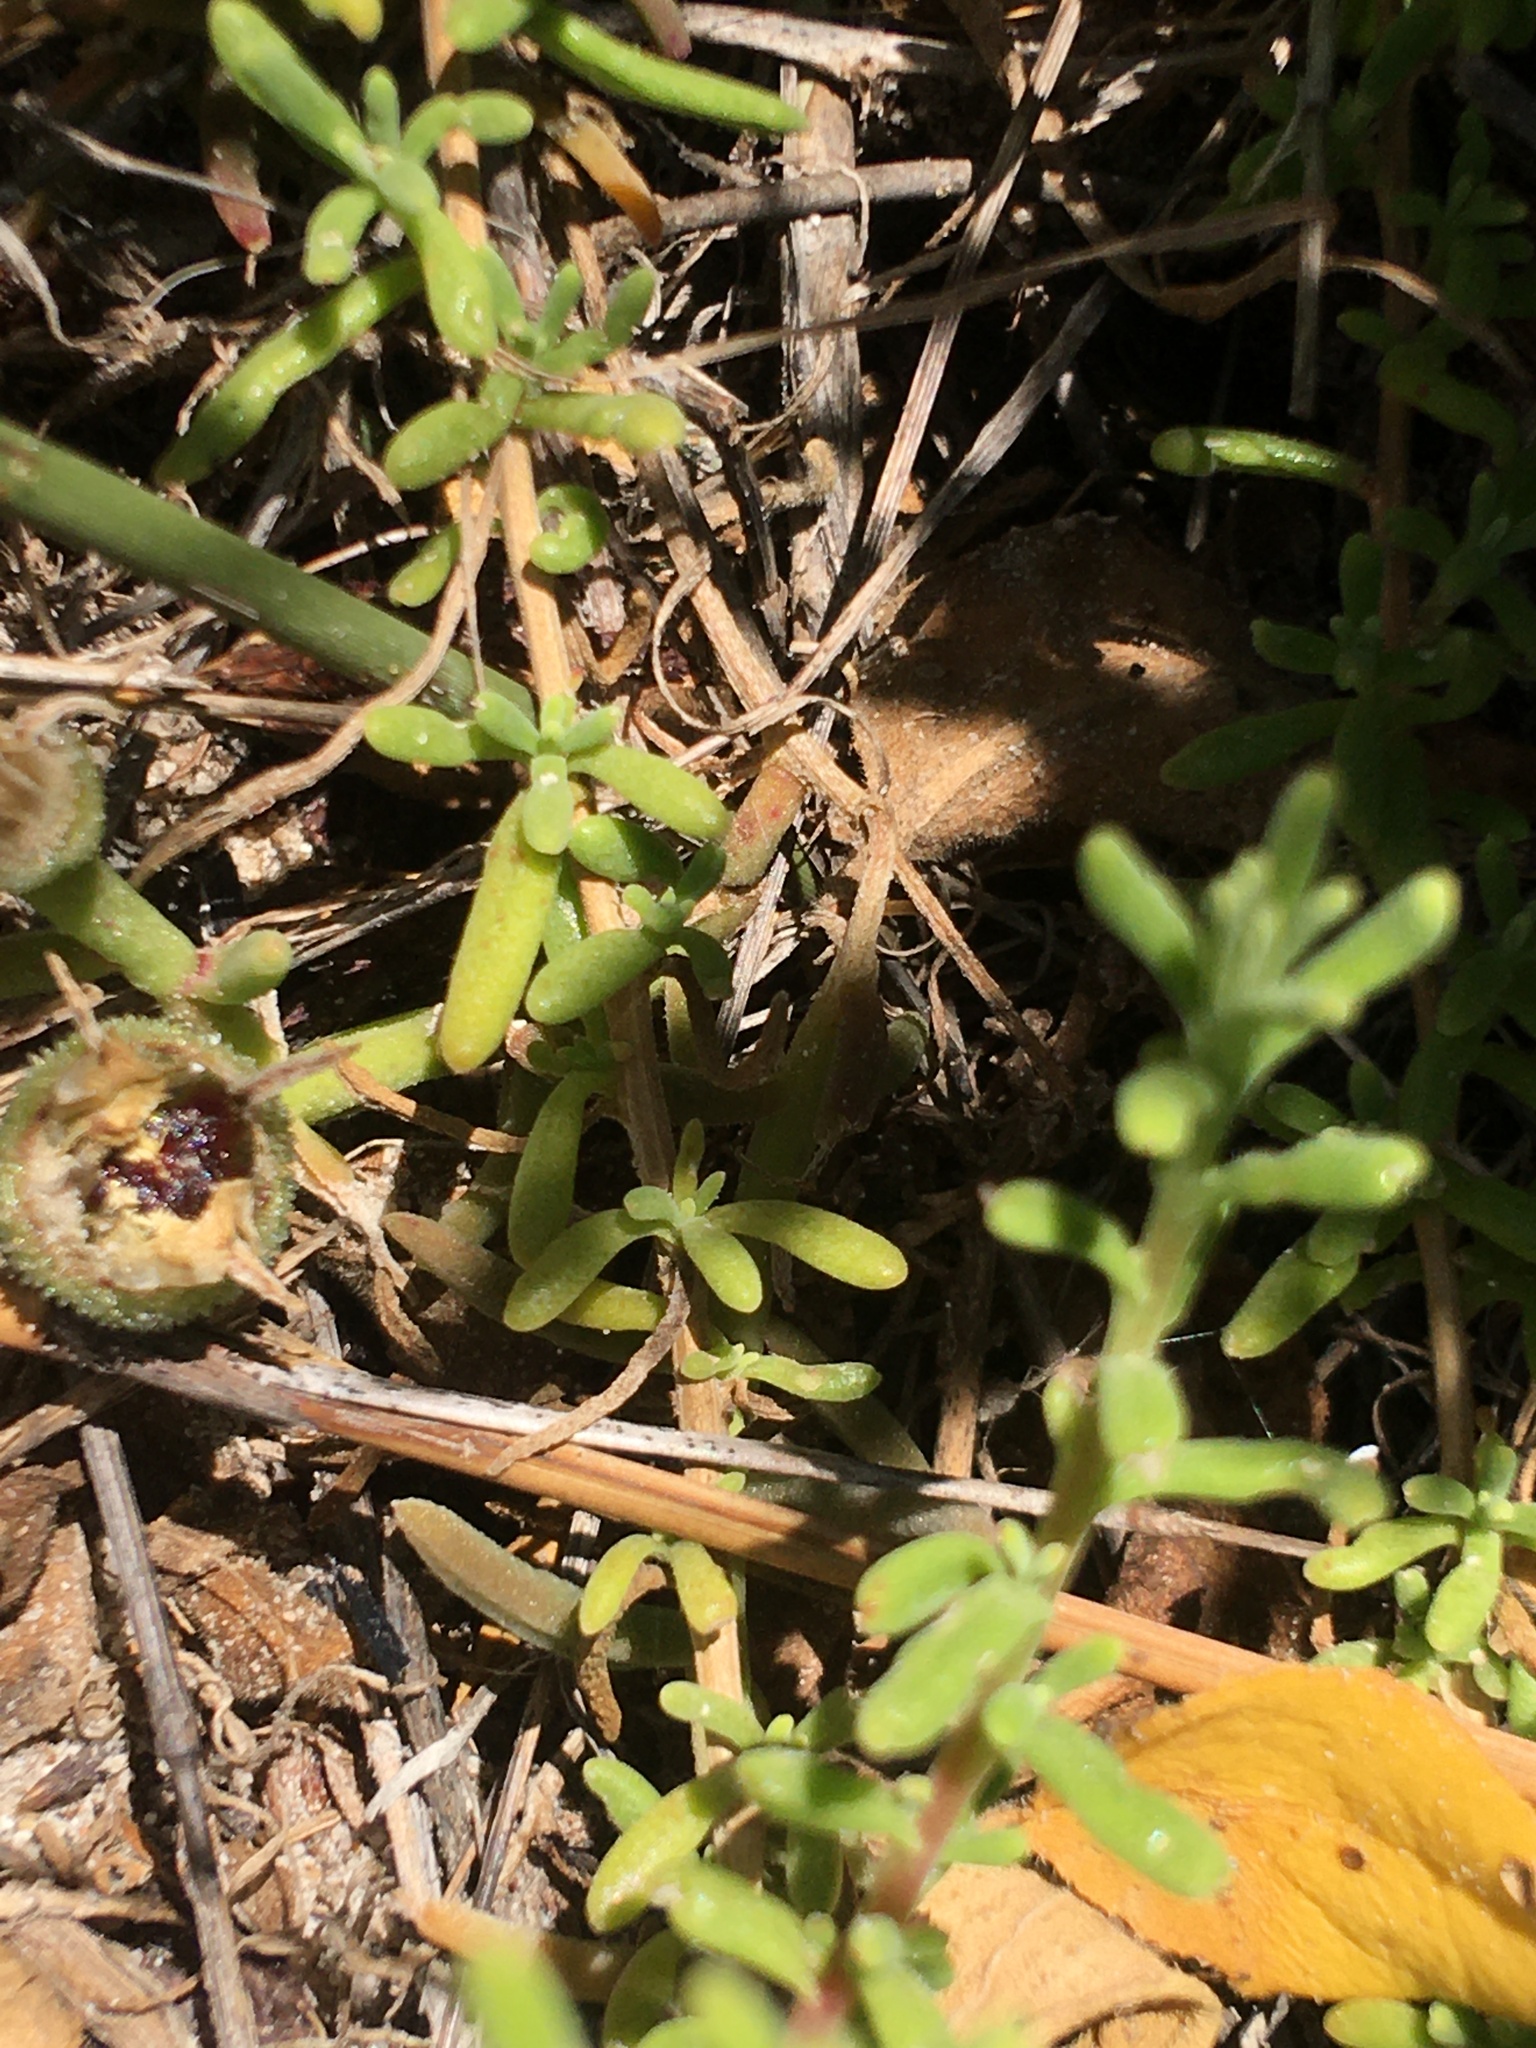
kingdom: Plantae
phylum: Tracheophyta
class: Magnoliopsida
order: Caryophyllales
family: Aizoaceae
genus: Mesembryanthemum
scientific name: Mesembryanthemum canaliculatum
